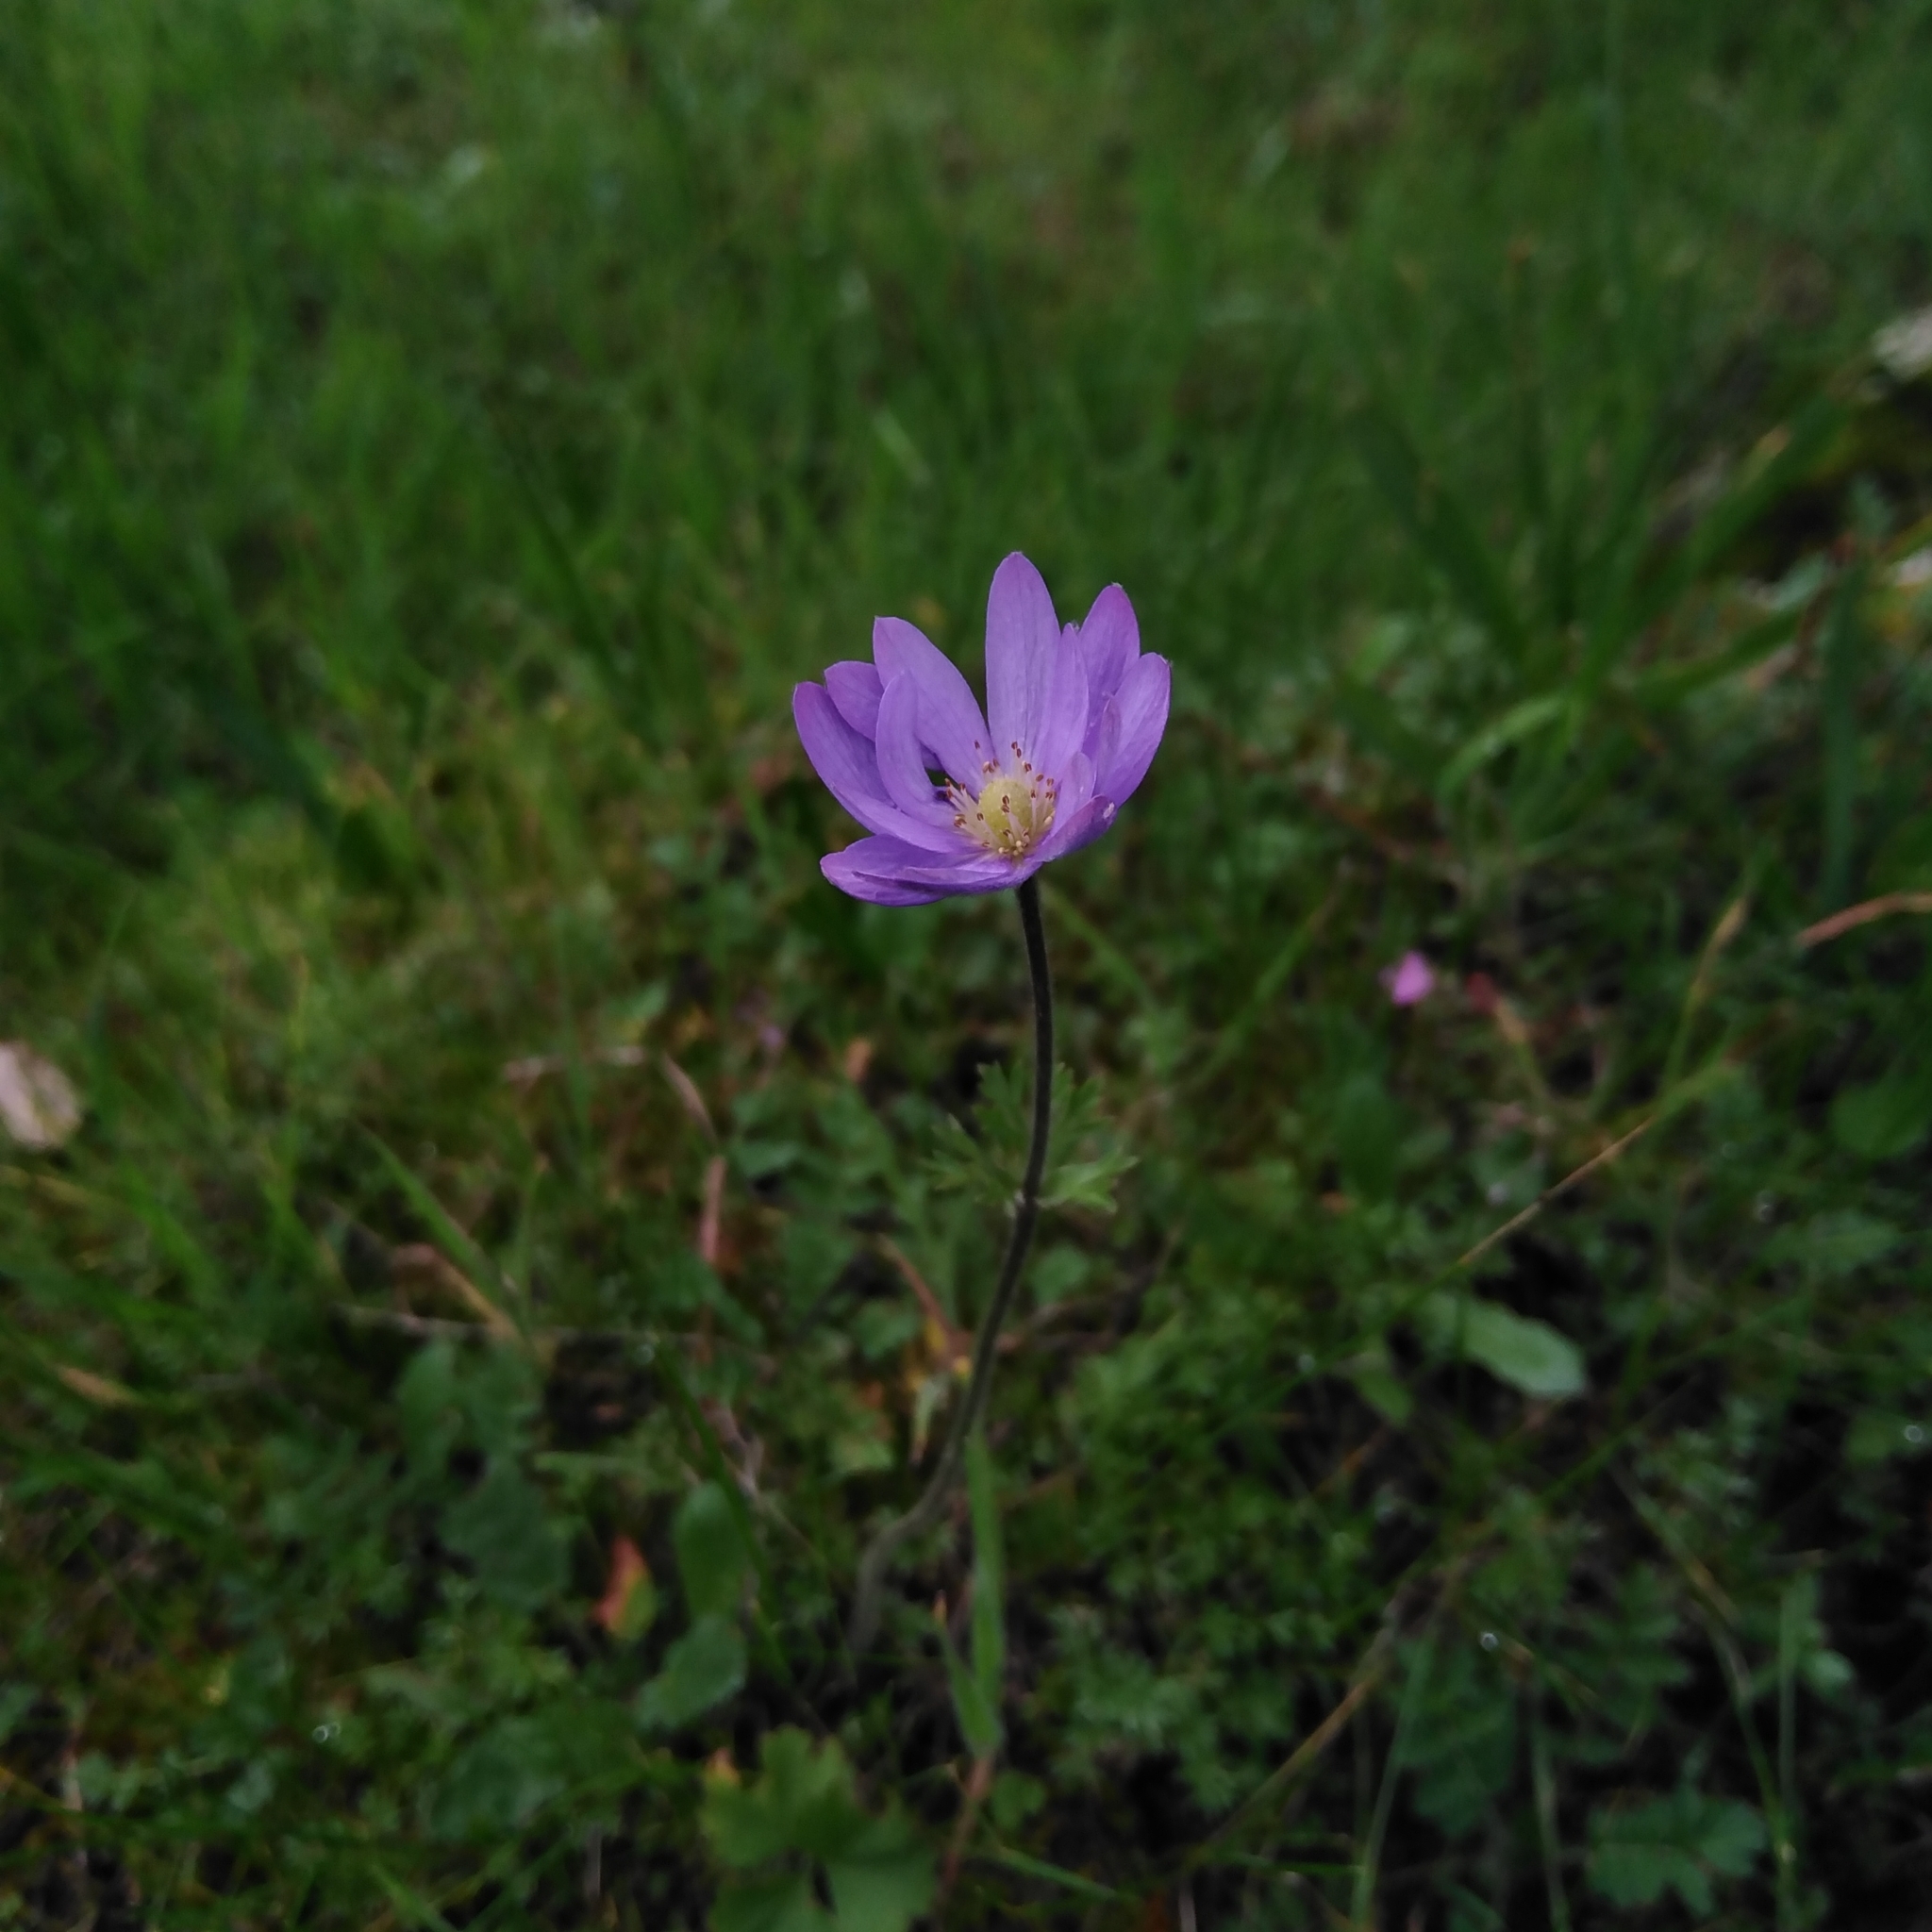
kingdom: Plantae
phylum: Tracheophyta
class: Magnoliopsida
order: Ranunculales
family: Ranunculaceae
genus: Anemone
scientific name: Anemone decapetala
